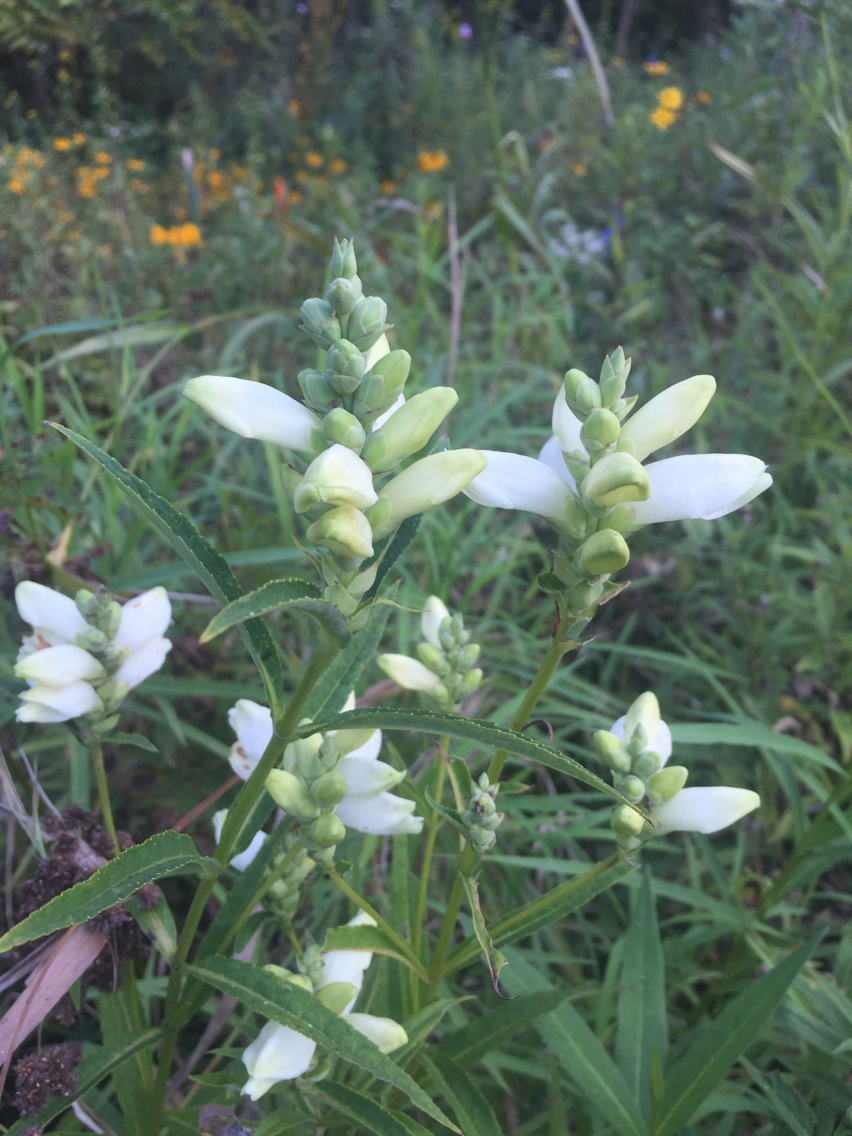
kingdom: Plantae
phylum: Tracheophyta
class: Magnoliopsida
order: Lamiales
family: Plantaginaceae
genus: Chelone
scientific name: Chelone glabra
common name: Snakehead
